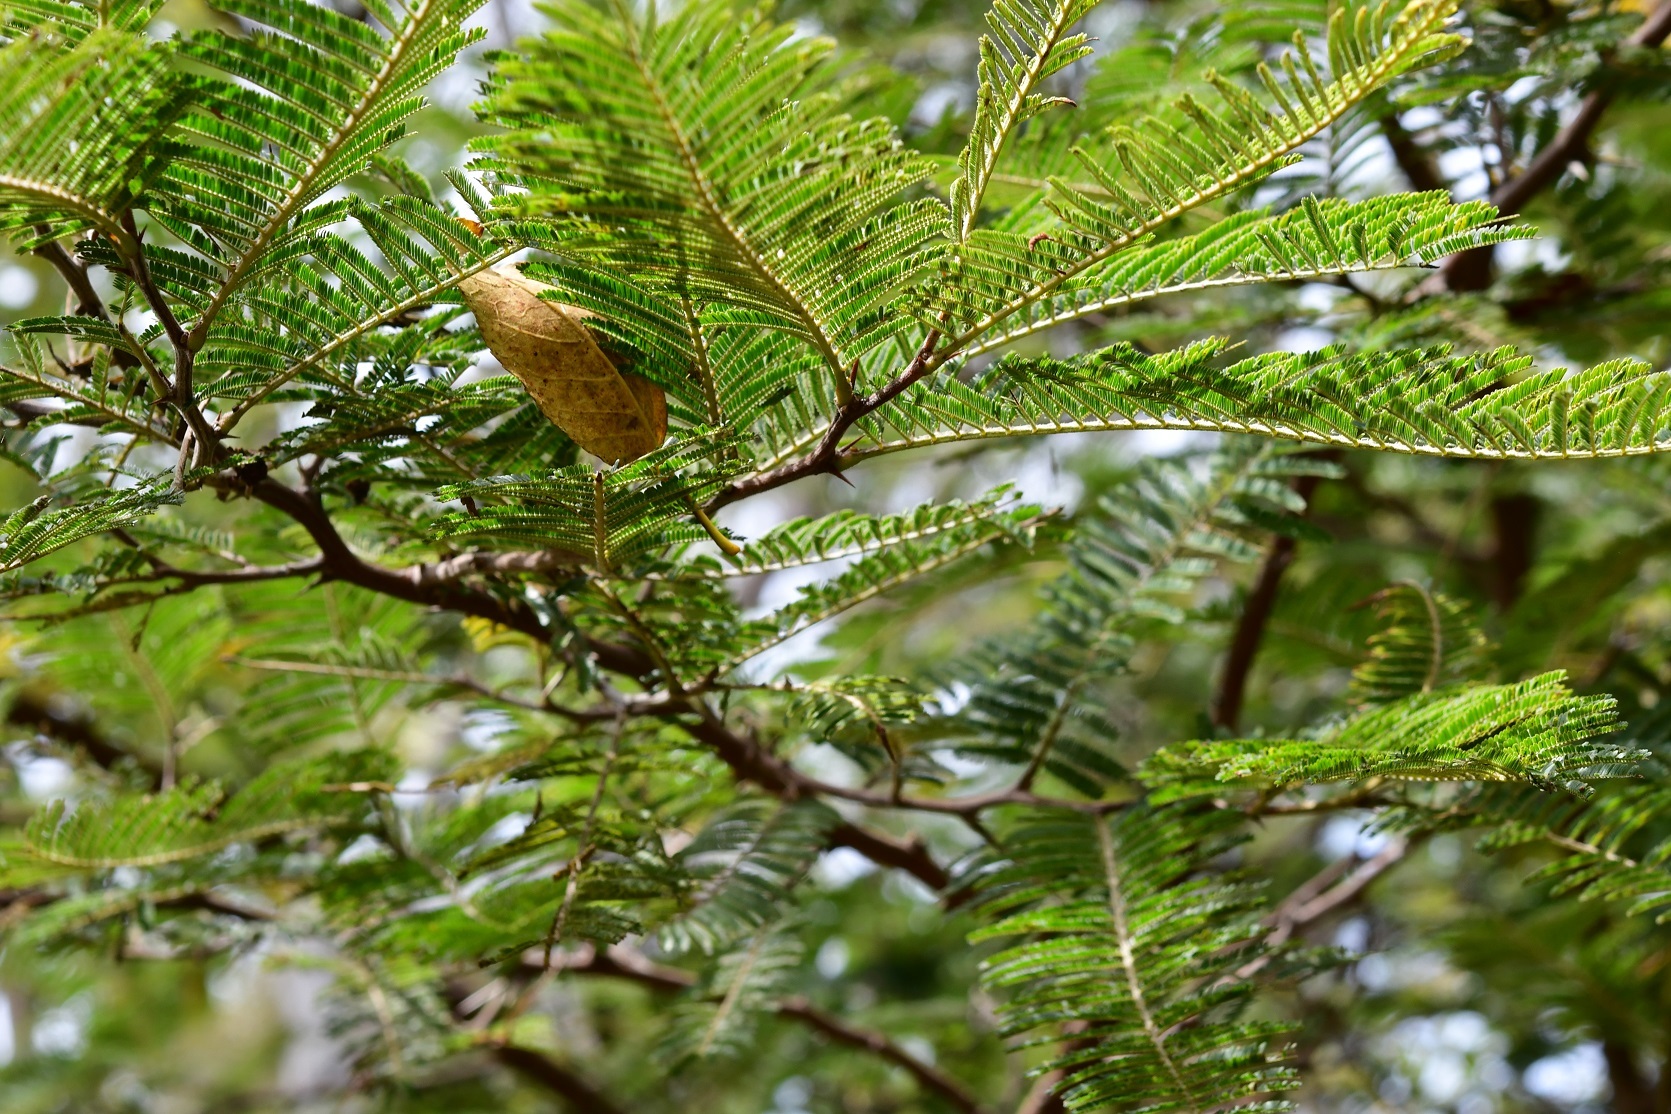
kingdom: Plantae
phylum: Tracheophyta
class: Magnoliopsida
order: Fabales
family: Fabaceae
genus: Vachellia
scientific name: Vachellia pennatula
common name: Fern-leaf acacia
